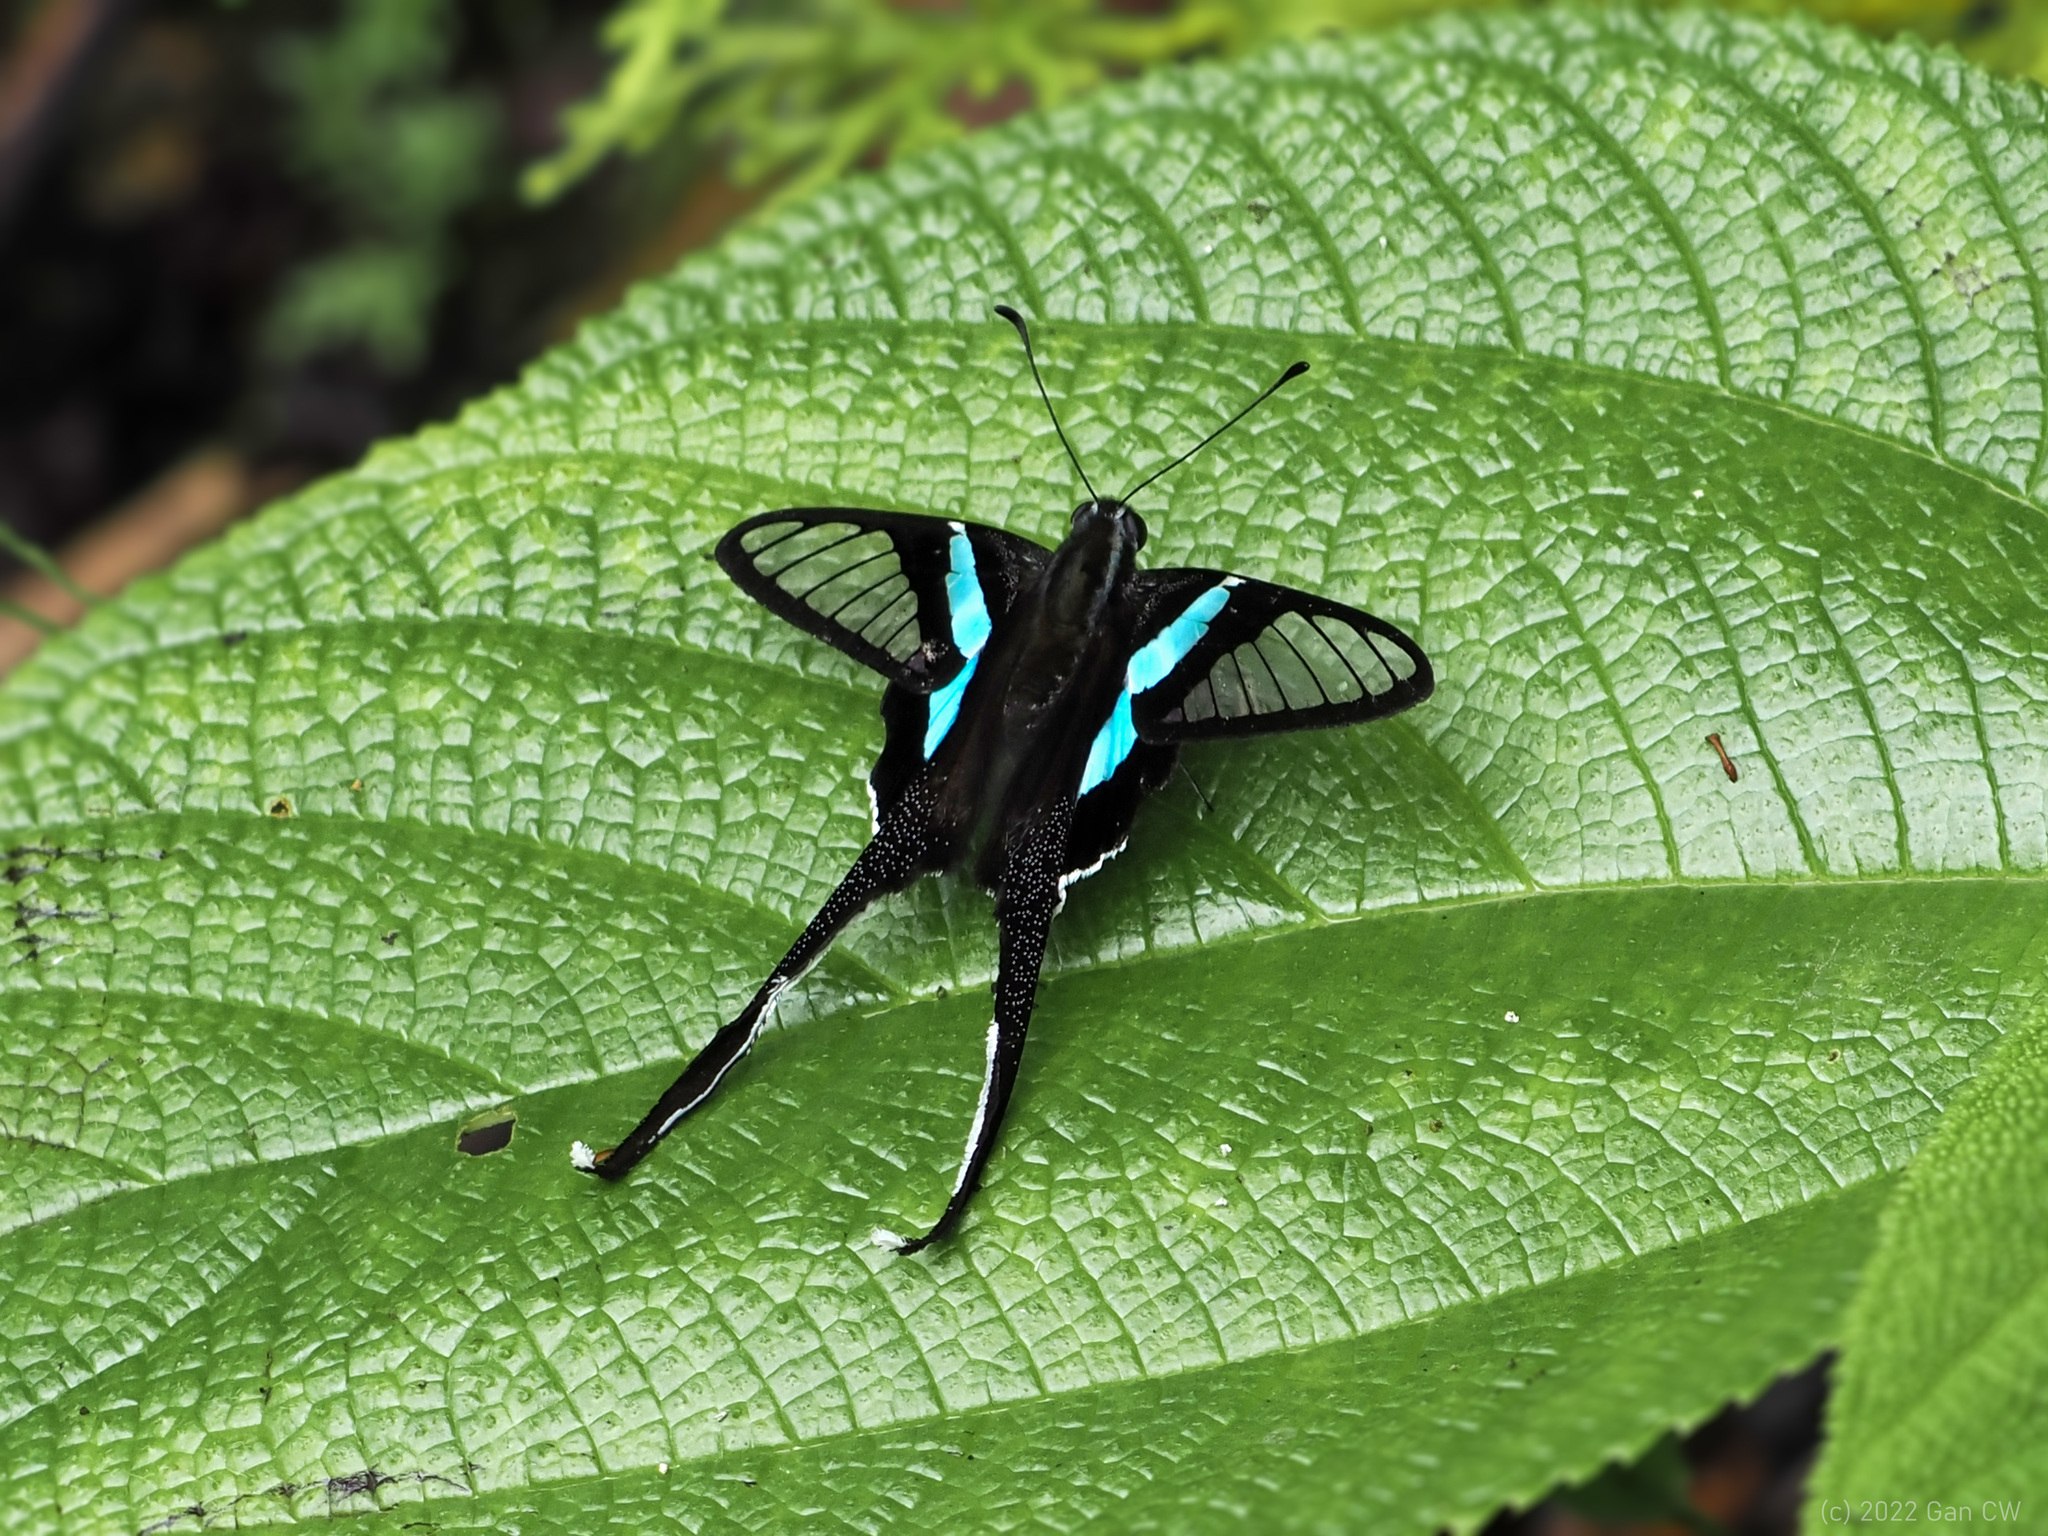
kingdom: Animalia
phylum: Arthropoda
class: Insecta
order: Lepidoptera
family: Papilionidae
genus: Lamproptera
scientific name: Lamproptera meges
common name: Green dragontail
